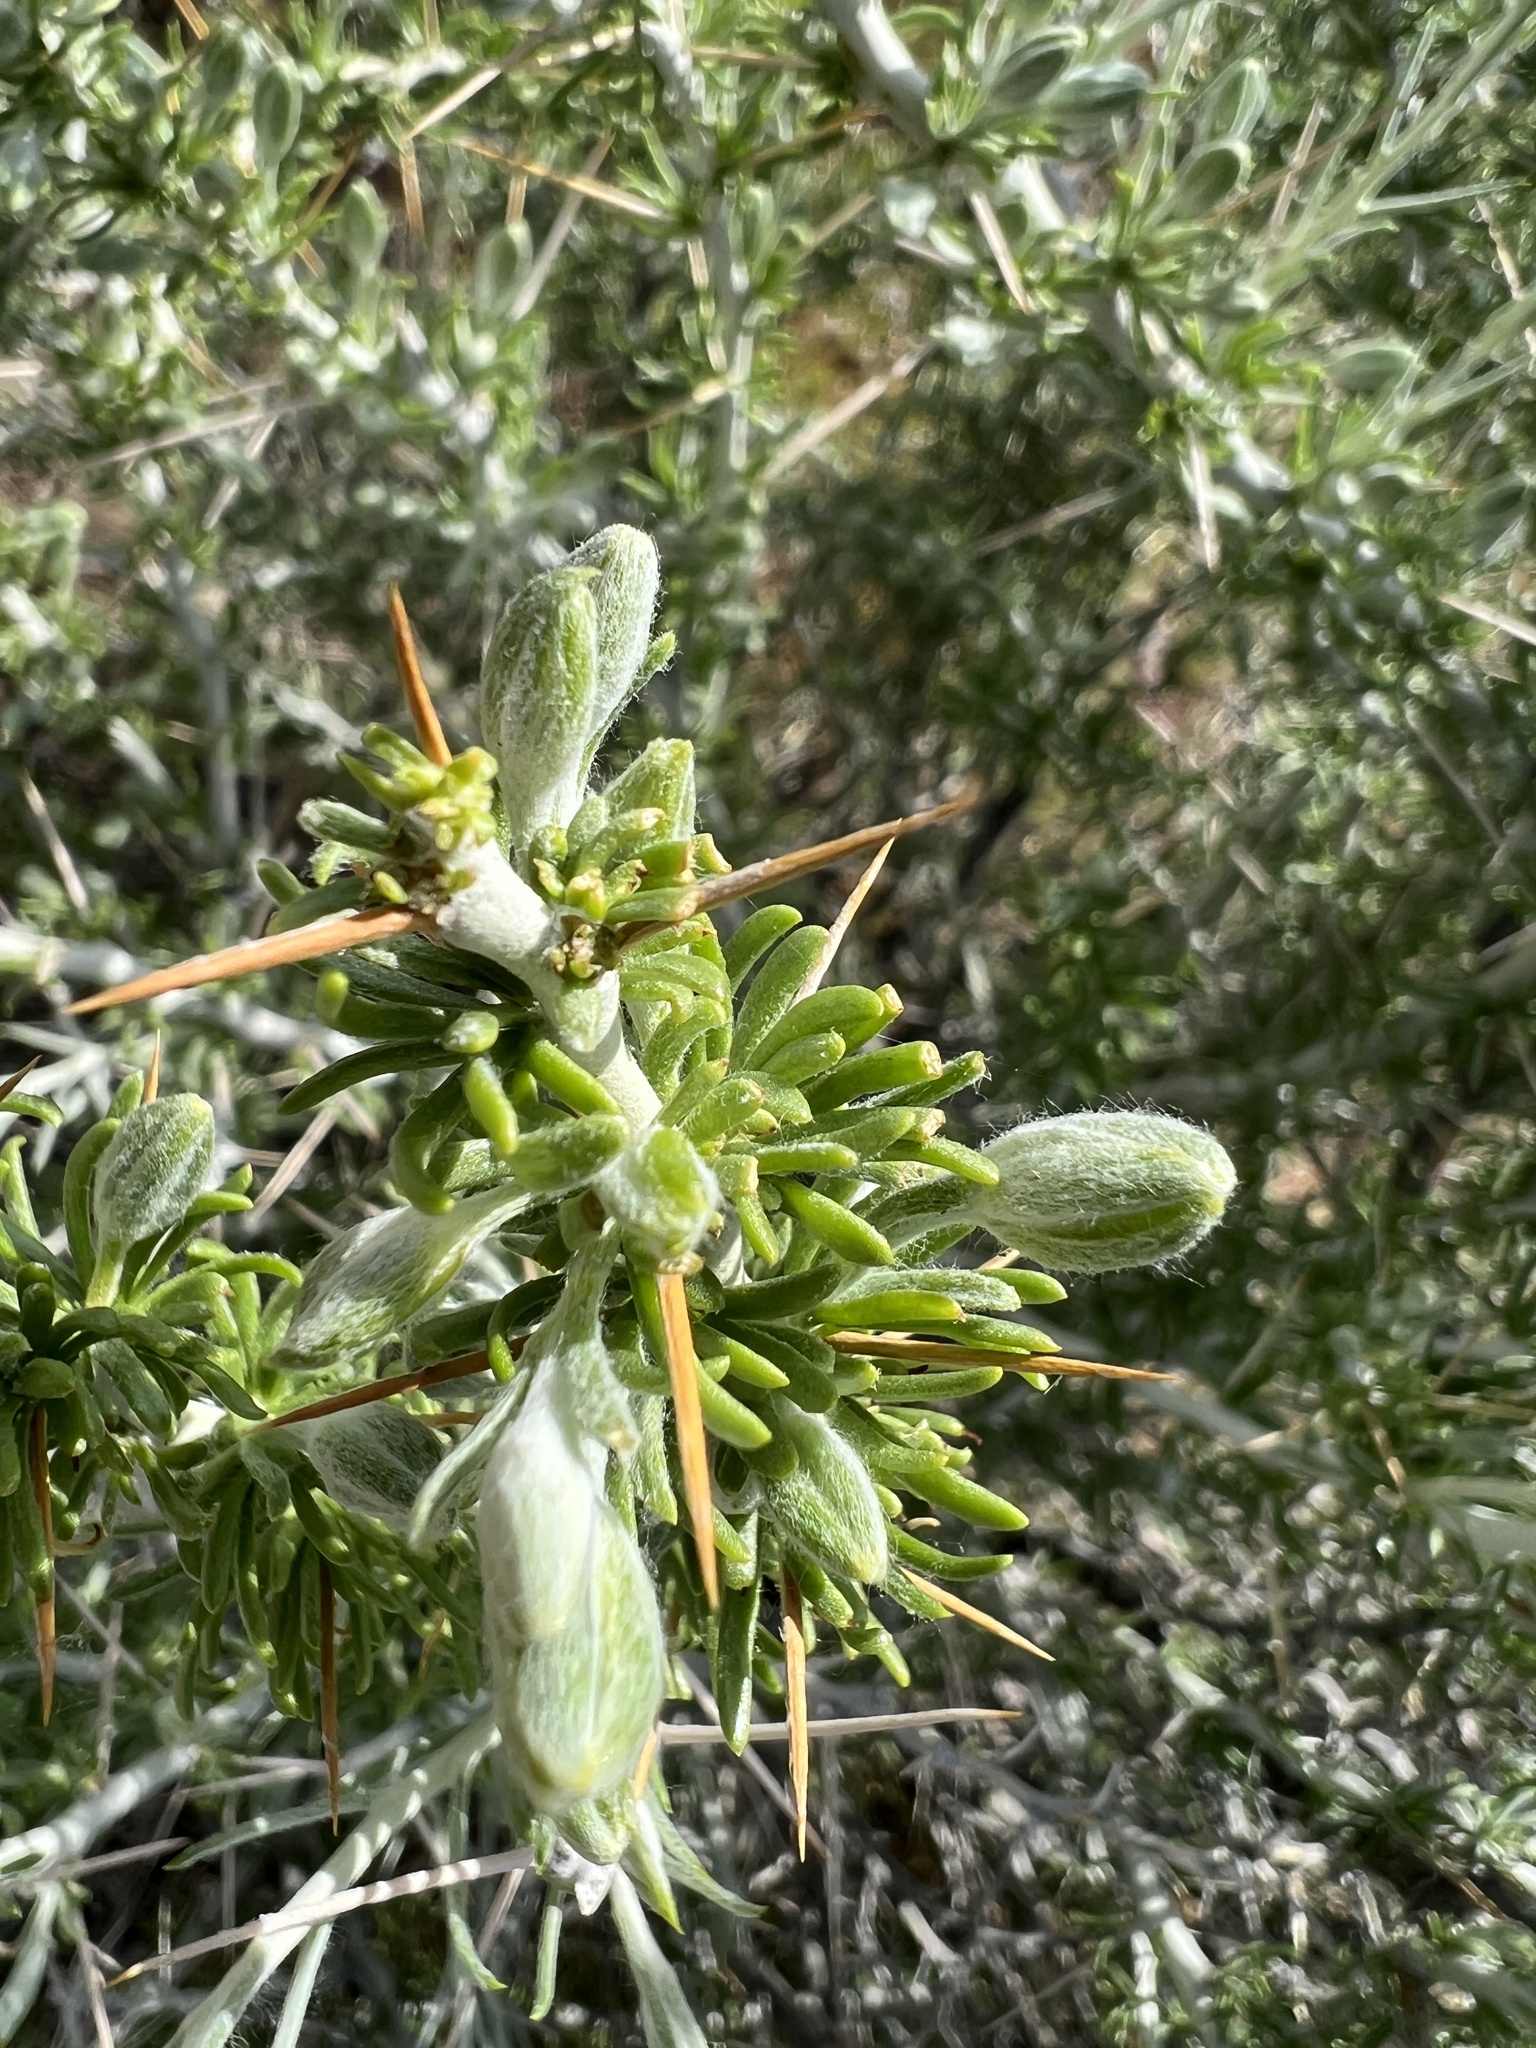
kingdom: Plantae
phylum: Tracheophyta
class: Magnoliopsida
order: Asterales
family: Asteraceae
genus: Tetradymia
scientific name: Tetradymia axillaris
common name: Long-spine horsebrush
